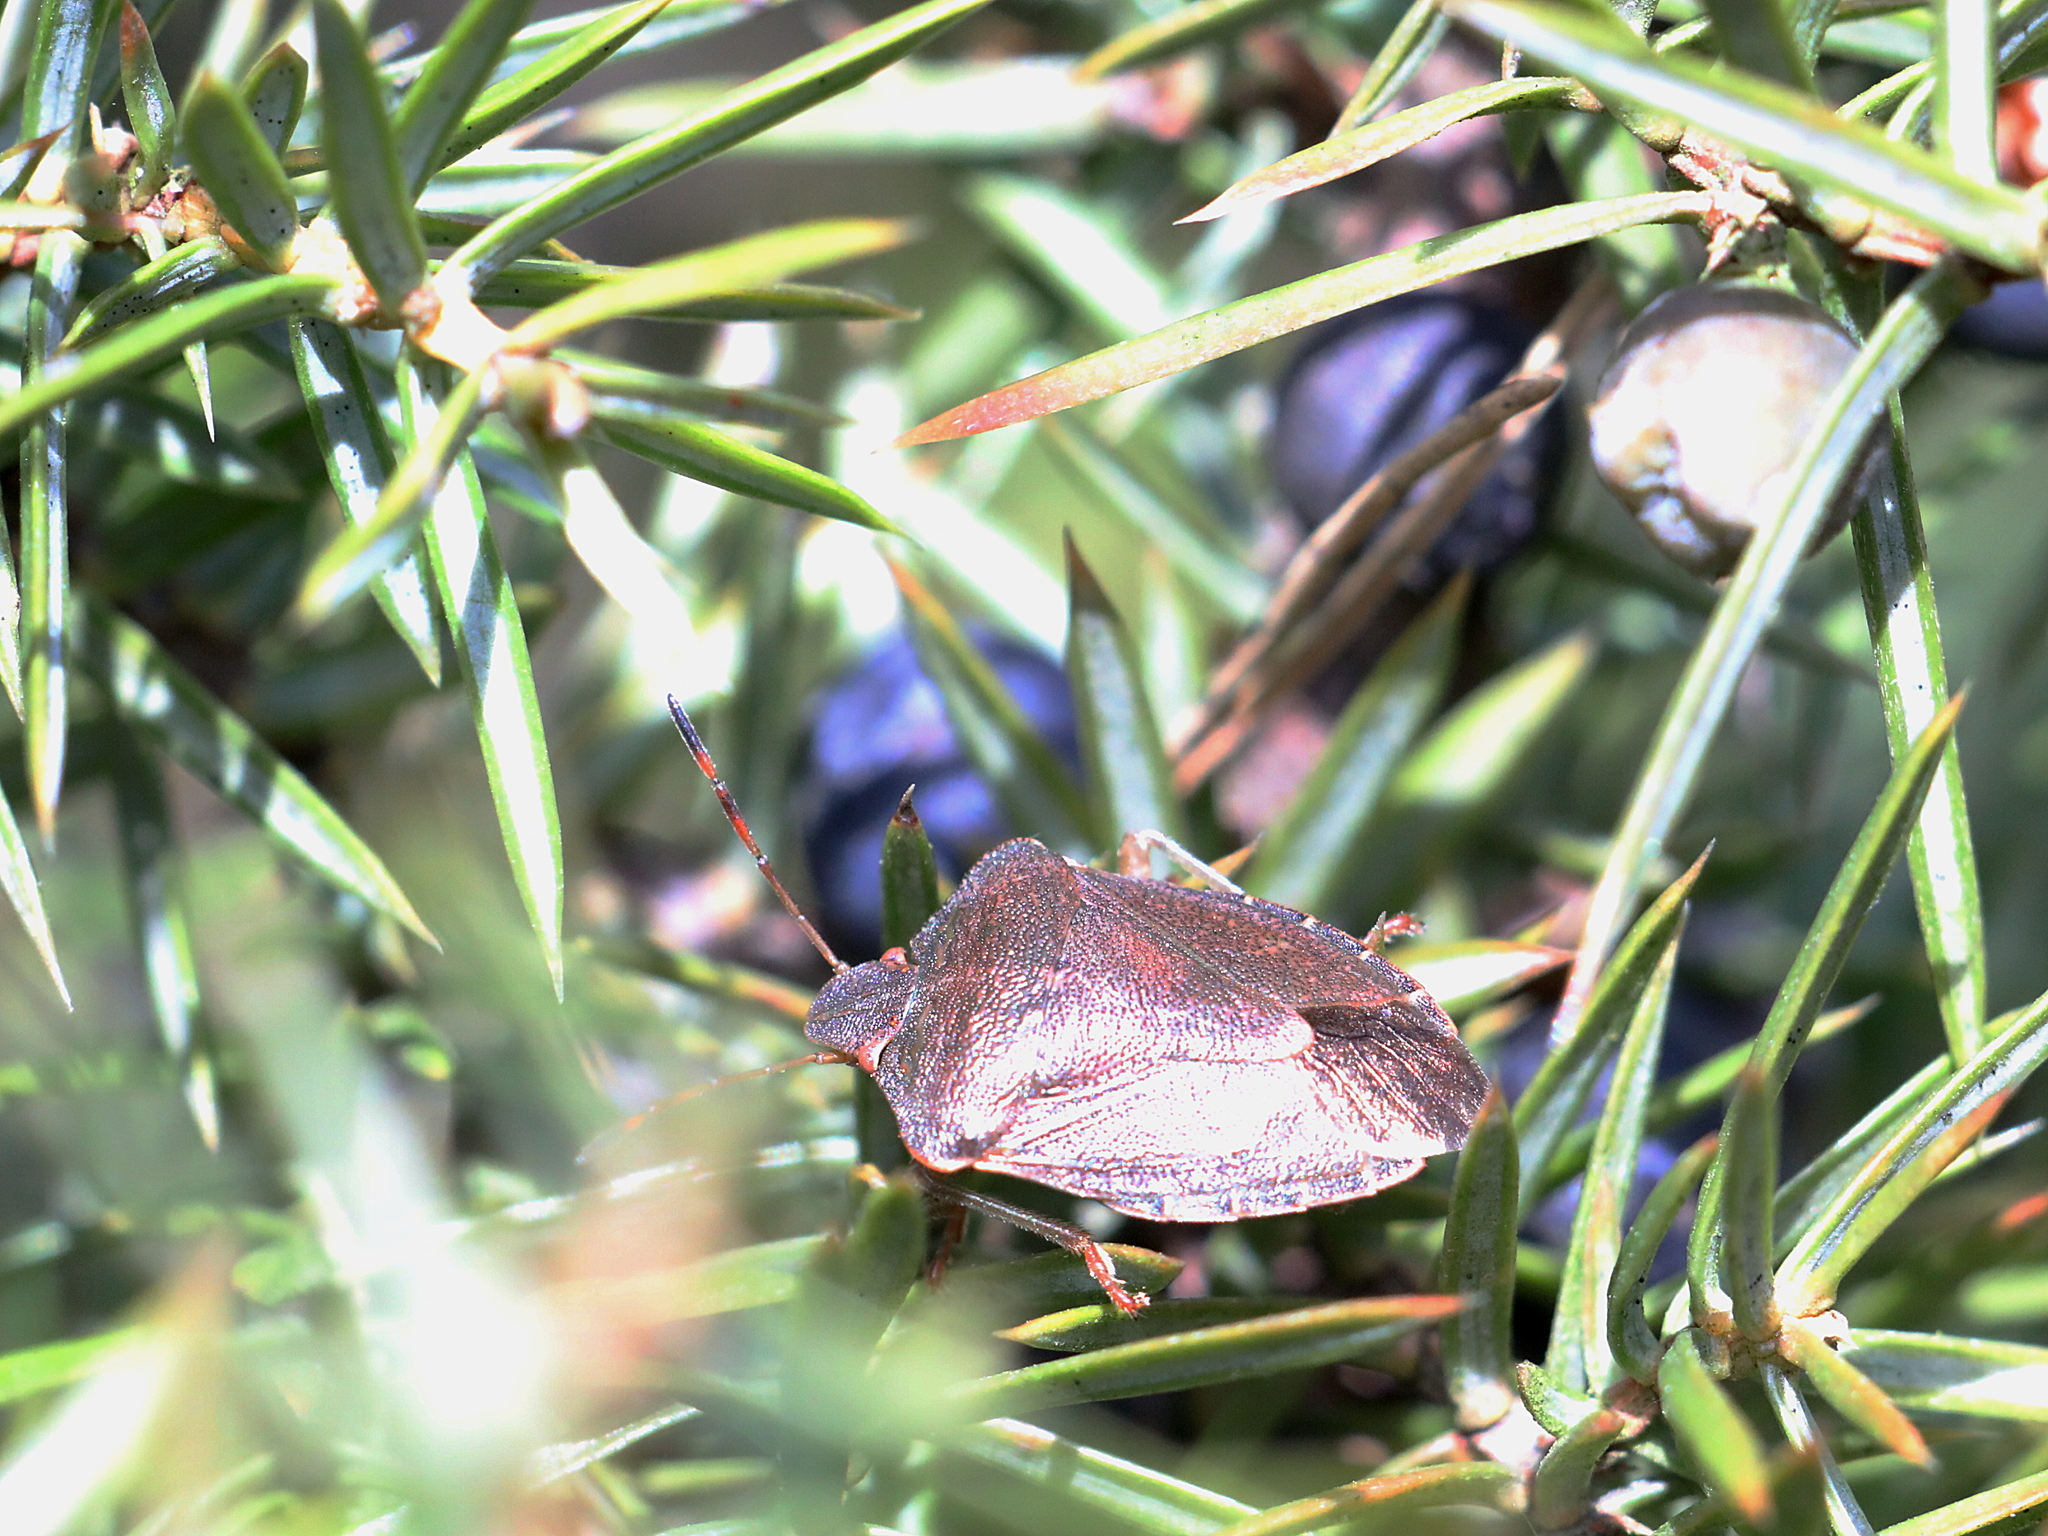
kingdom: Animalia
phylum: Arthropoda
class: Insecta
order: Hemiptera
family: Pentatomidae
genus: Palomena
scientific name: Palomena prasina
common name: Green shieldbug
